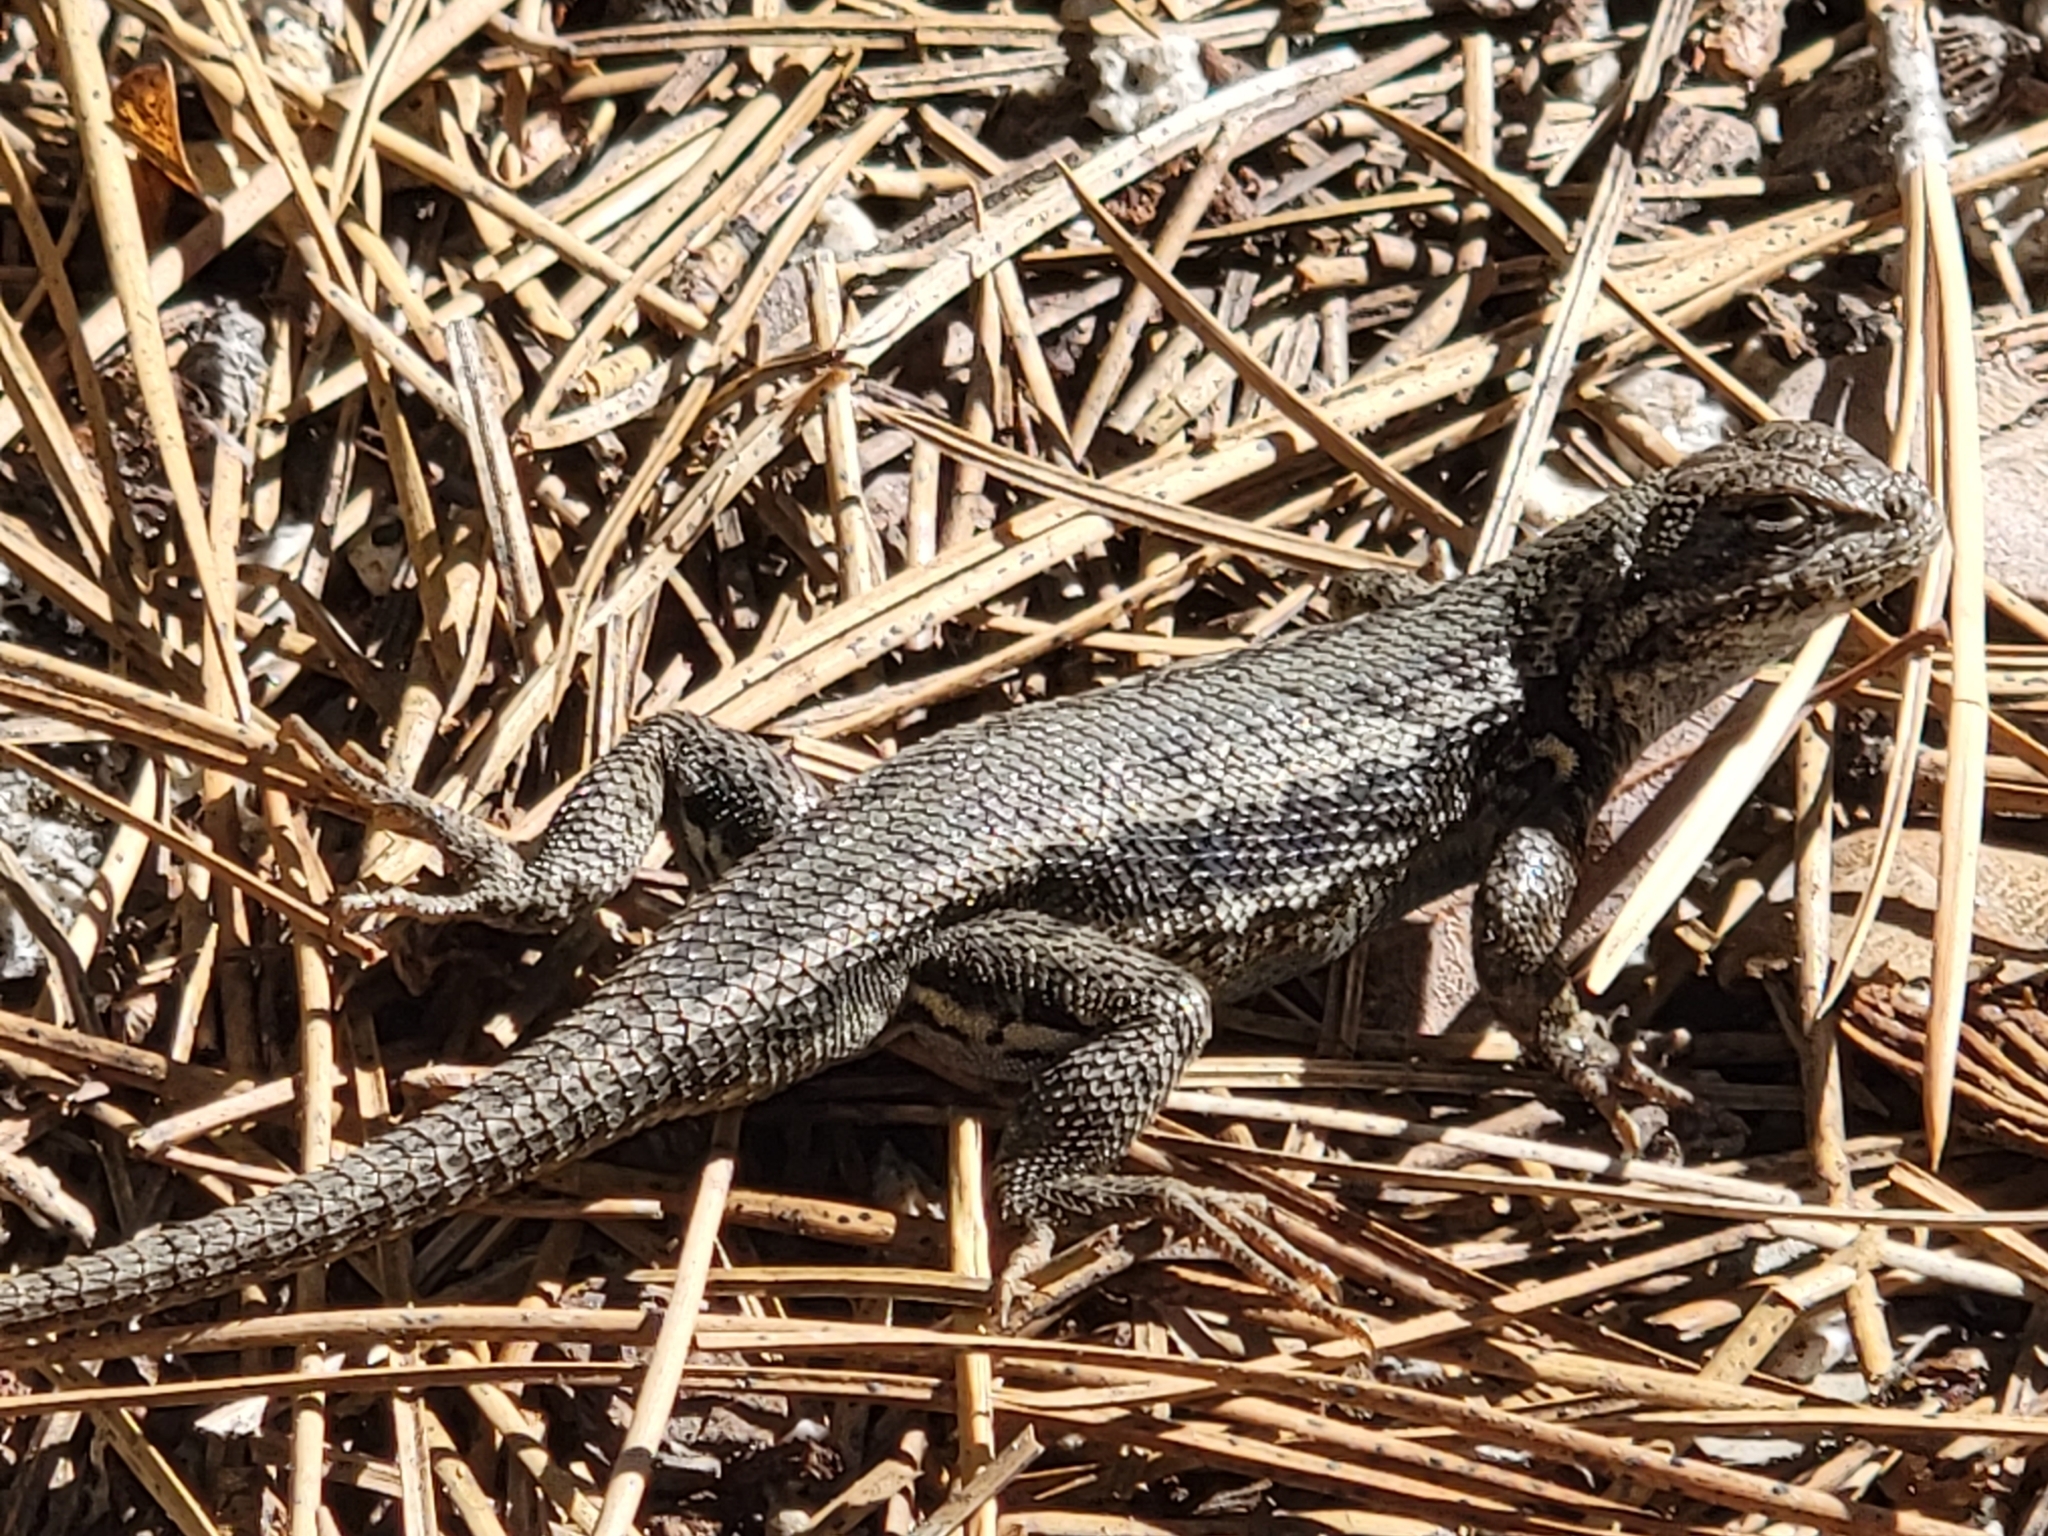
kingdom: Animalia
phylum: Chordata
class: Squamata
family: Phrynosomatidae
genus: Sceloporus
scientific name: Sceloporus graciosus
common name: Sagebrush lizard
